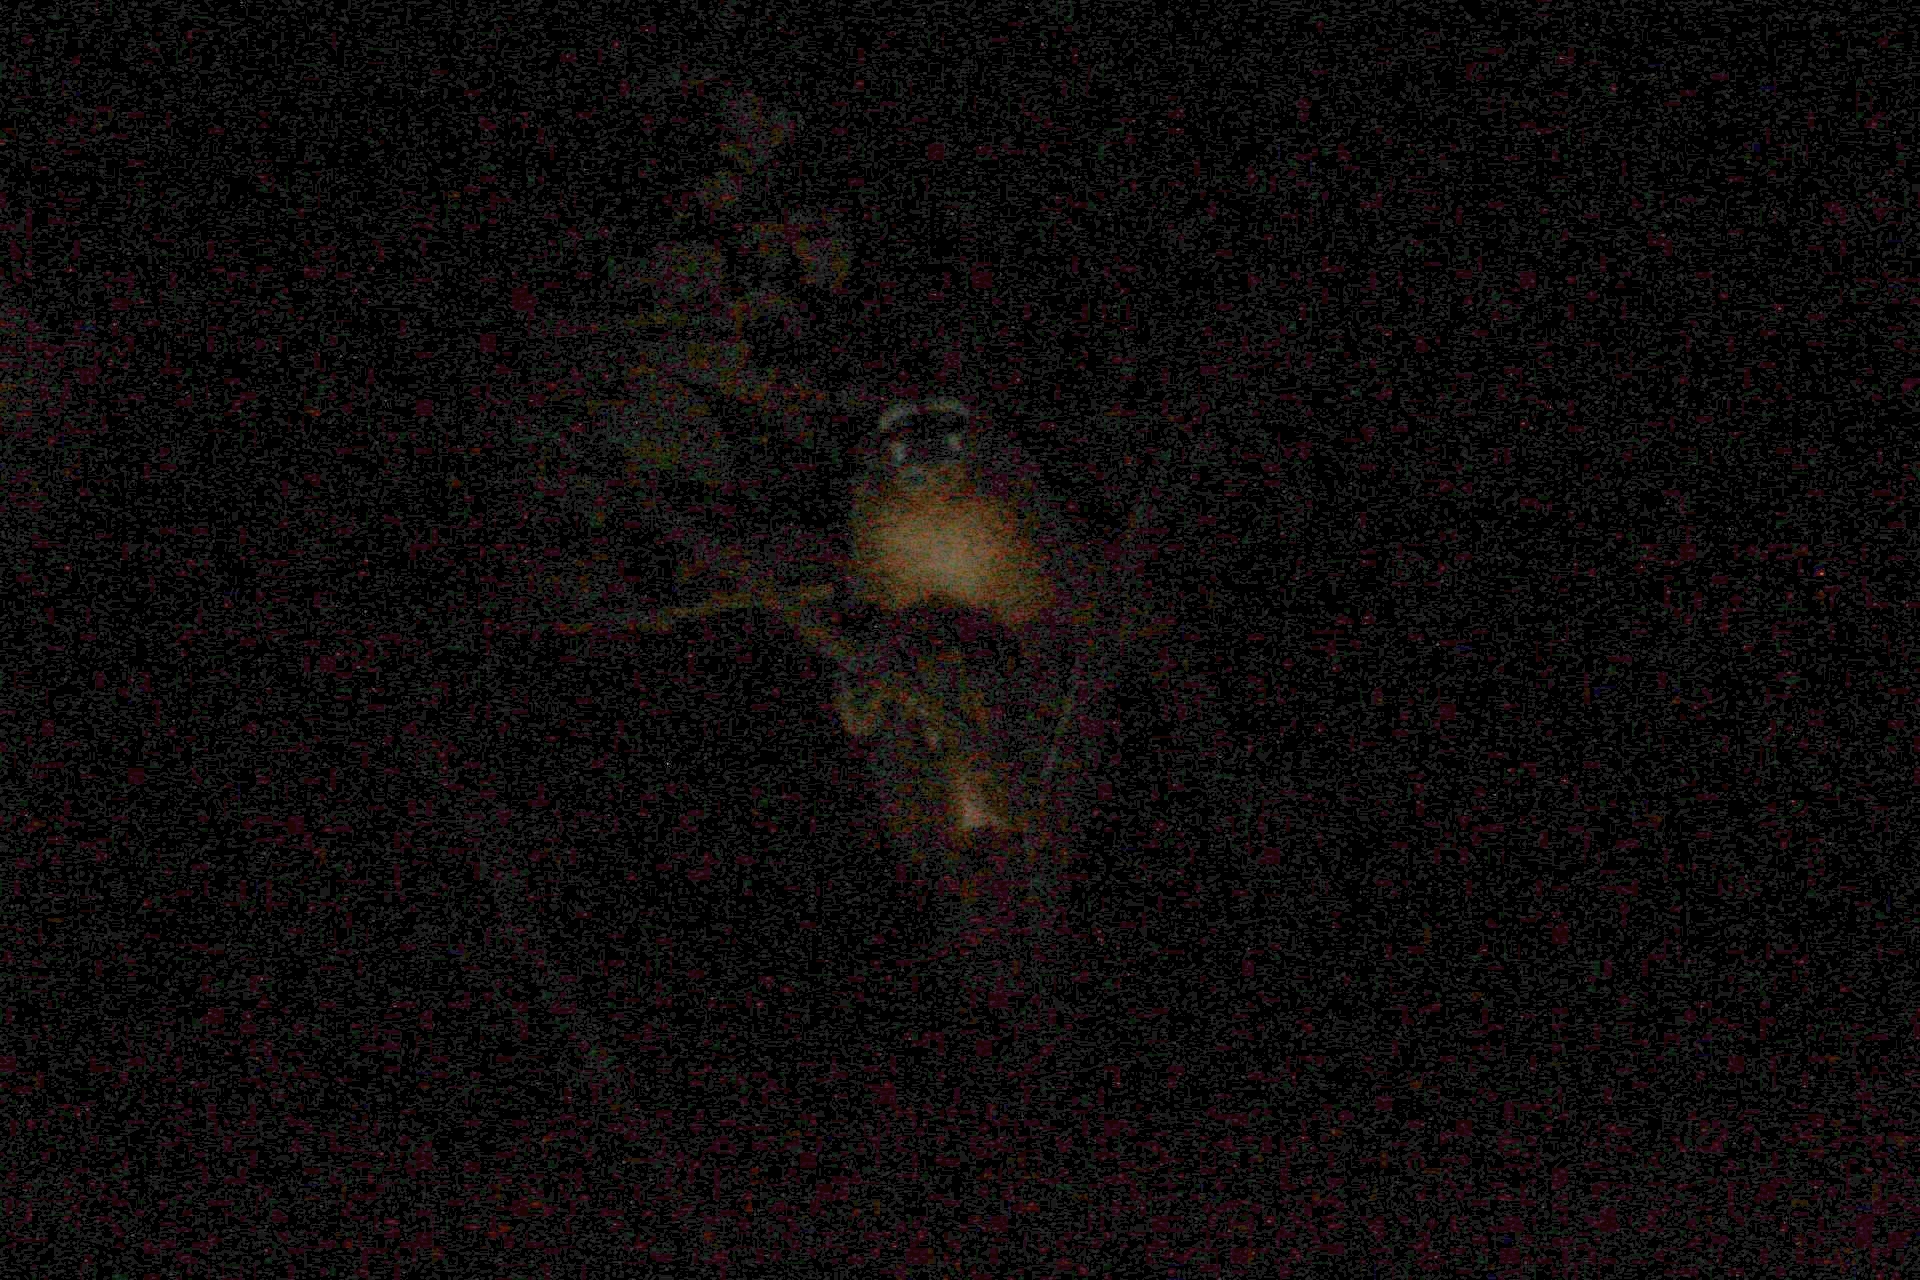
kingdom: Animalia
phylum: Chordata
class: Mammalia
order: Primates
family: Aotidae
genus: Aotus
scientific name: Aotus miconax
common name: Peruvian night monkey
